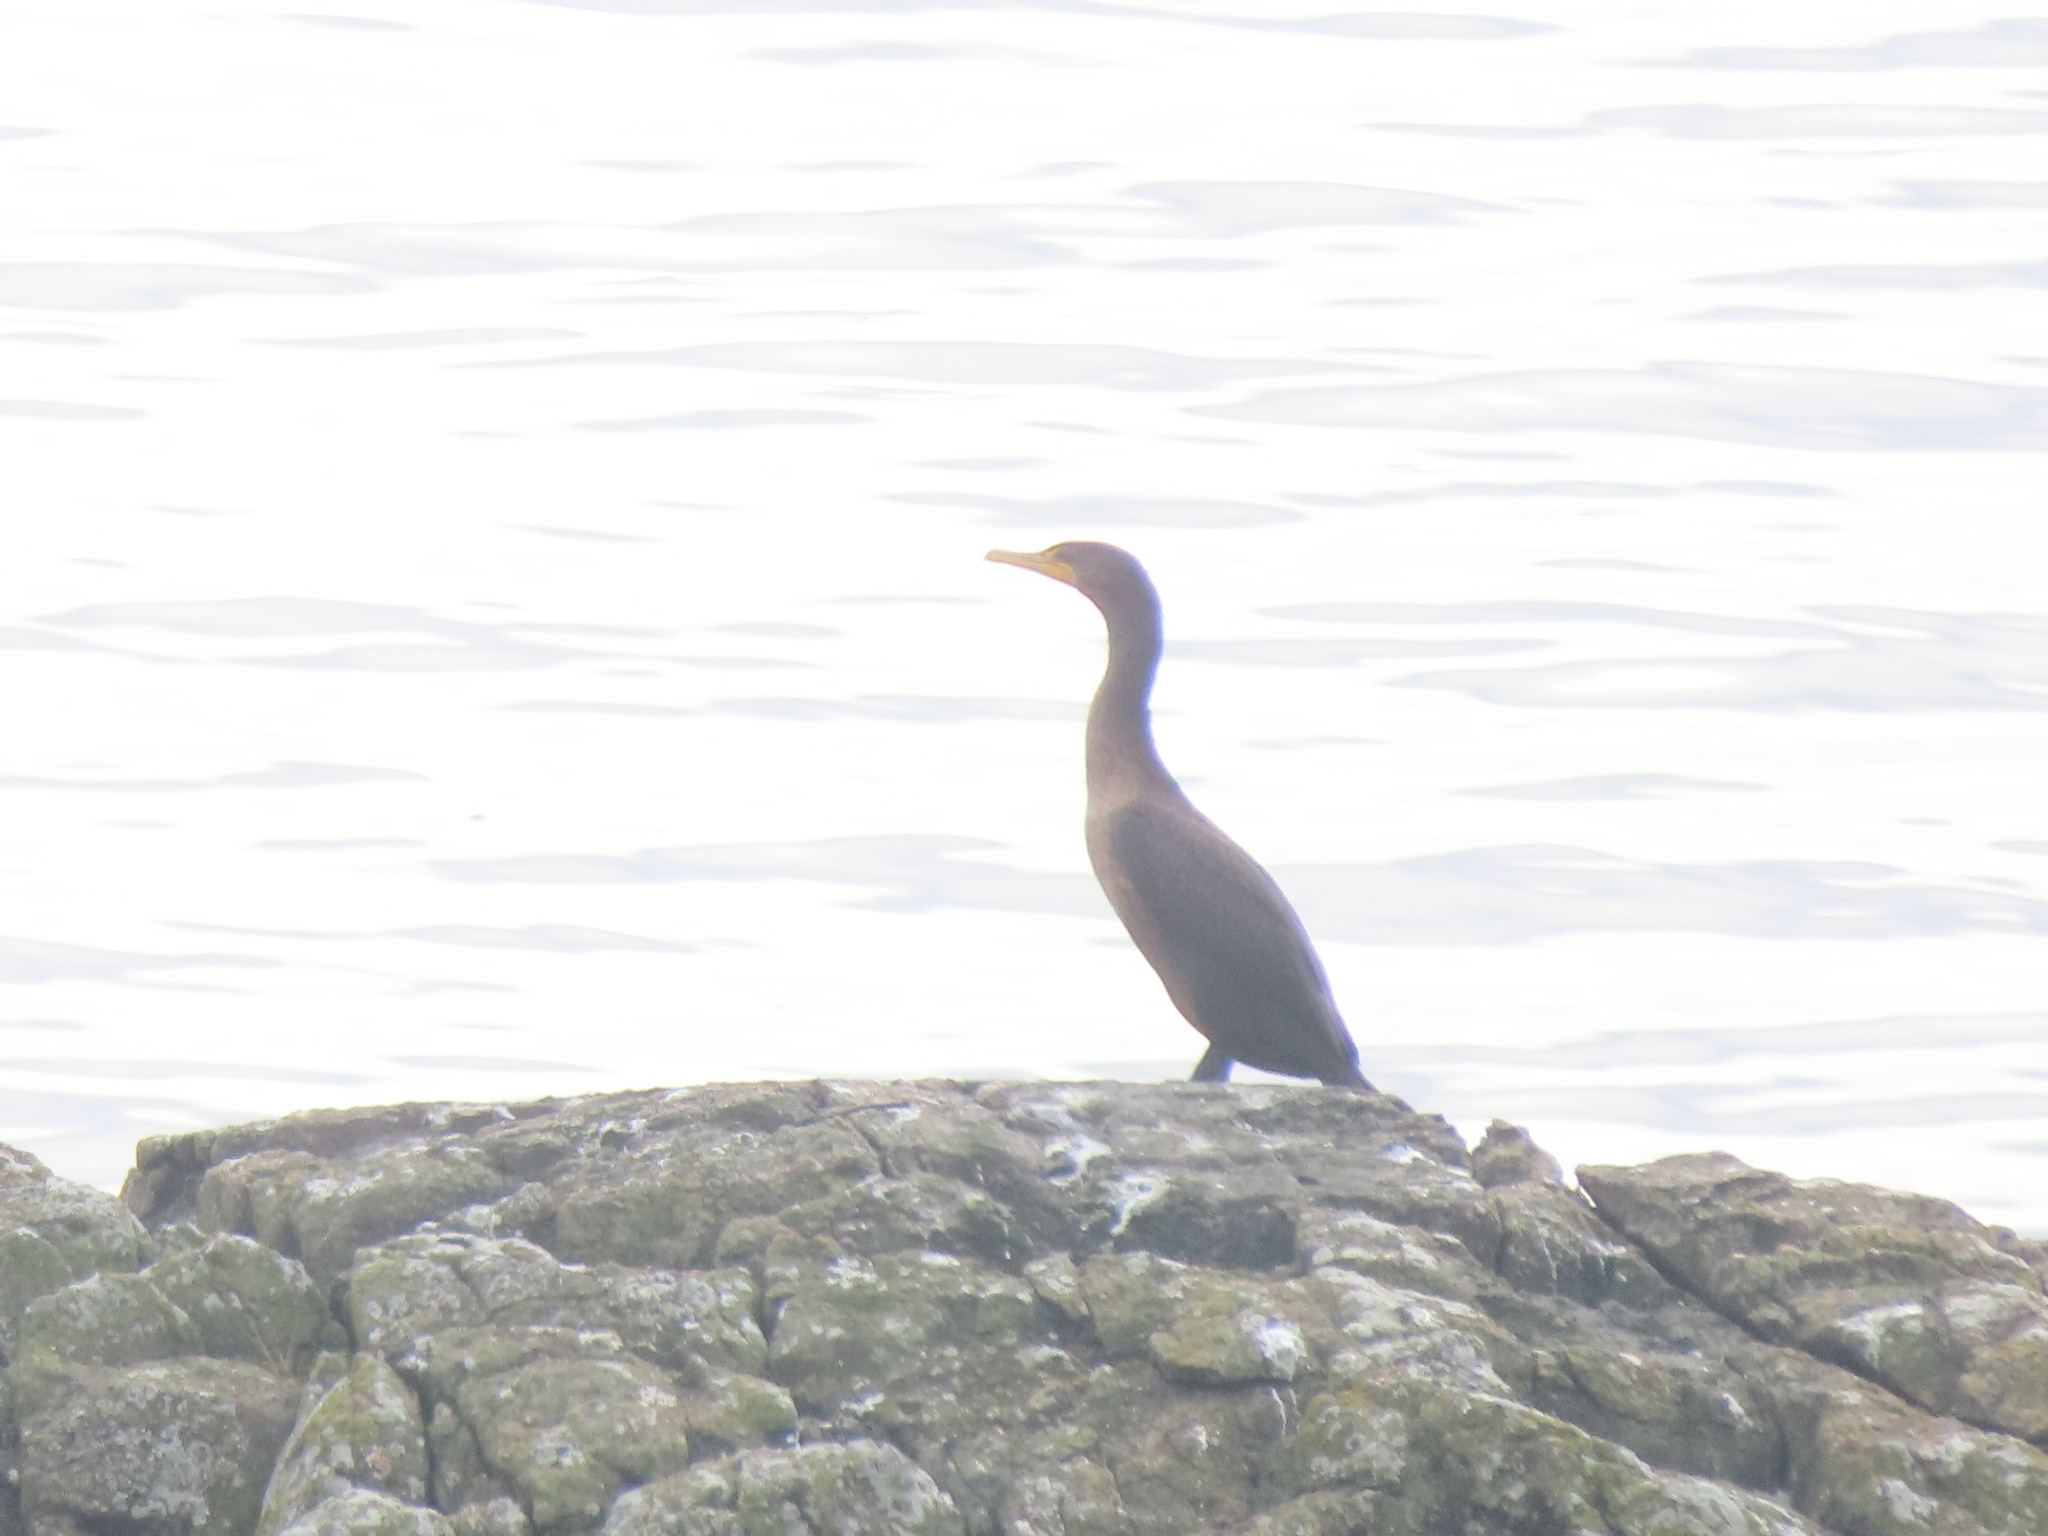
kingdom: Animalia
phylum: Chordata
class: Aves
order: Suliformes
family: Phalacrocoracidae
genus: Phalacrocorax
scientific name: Phalacrocorax auritus
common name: Double-crested cormorant
